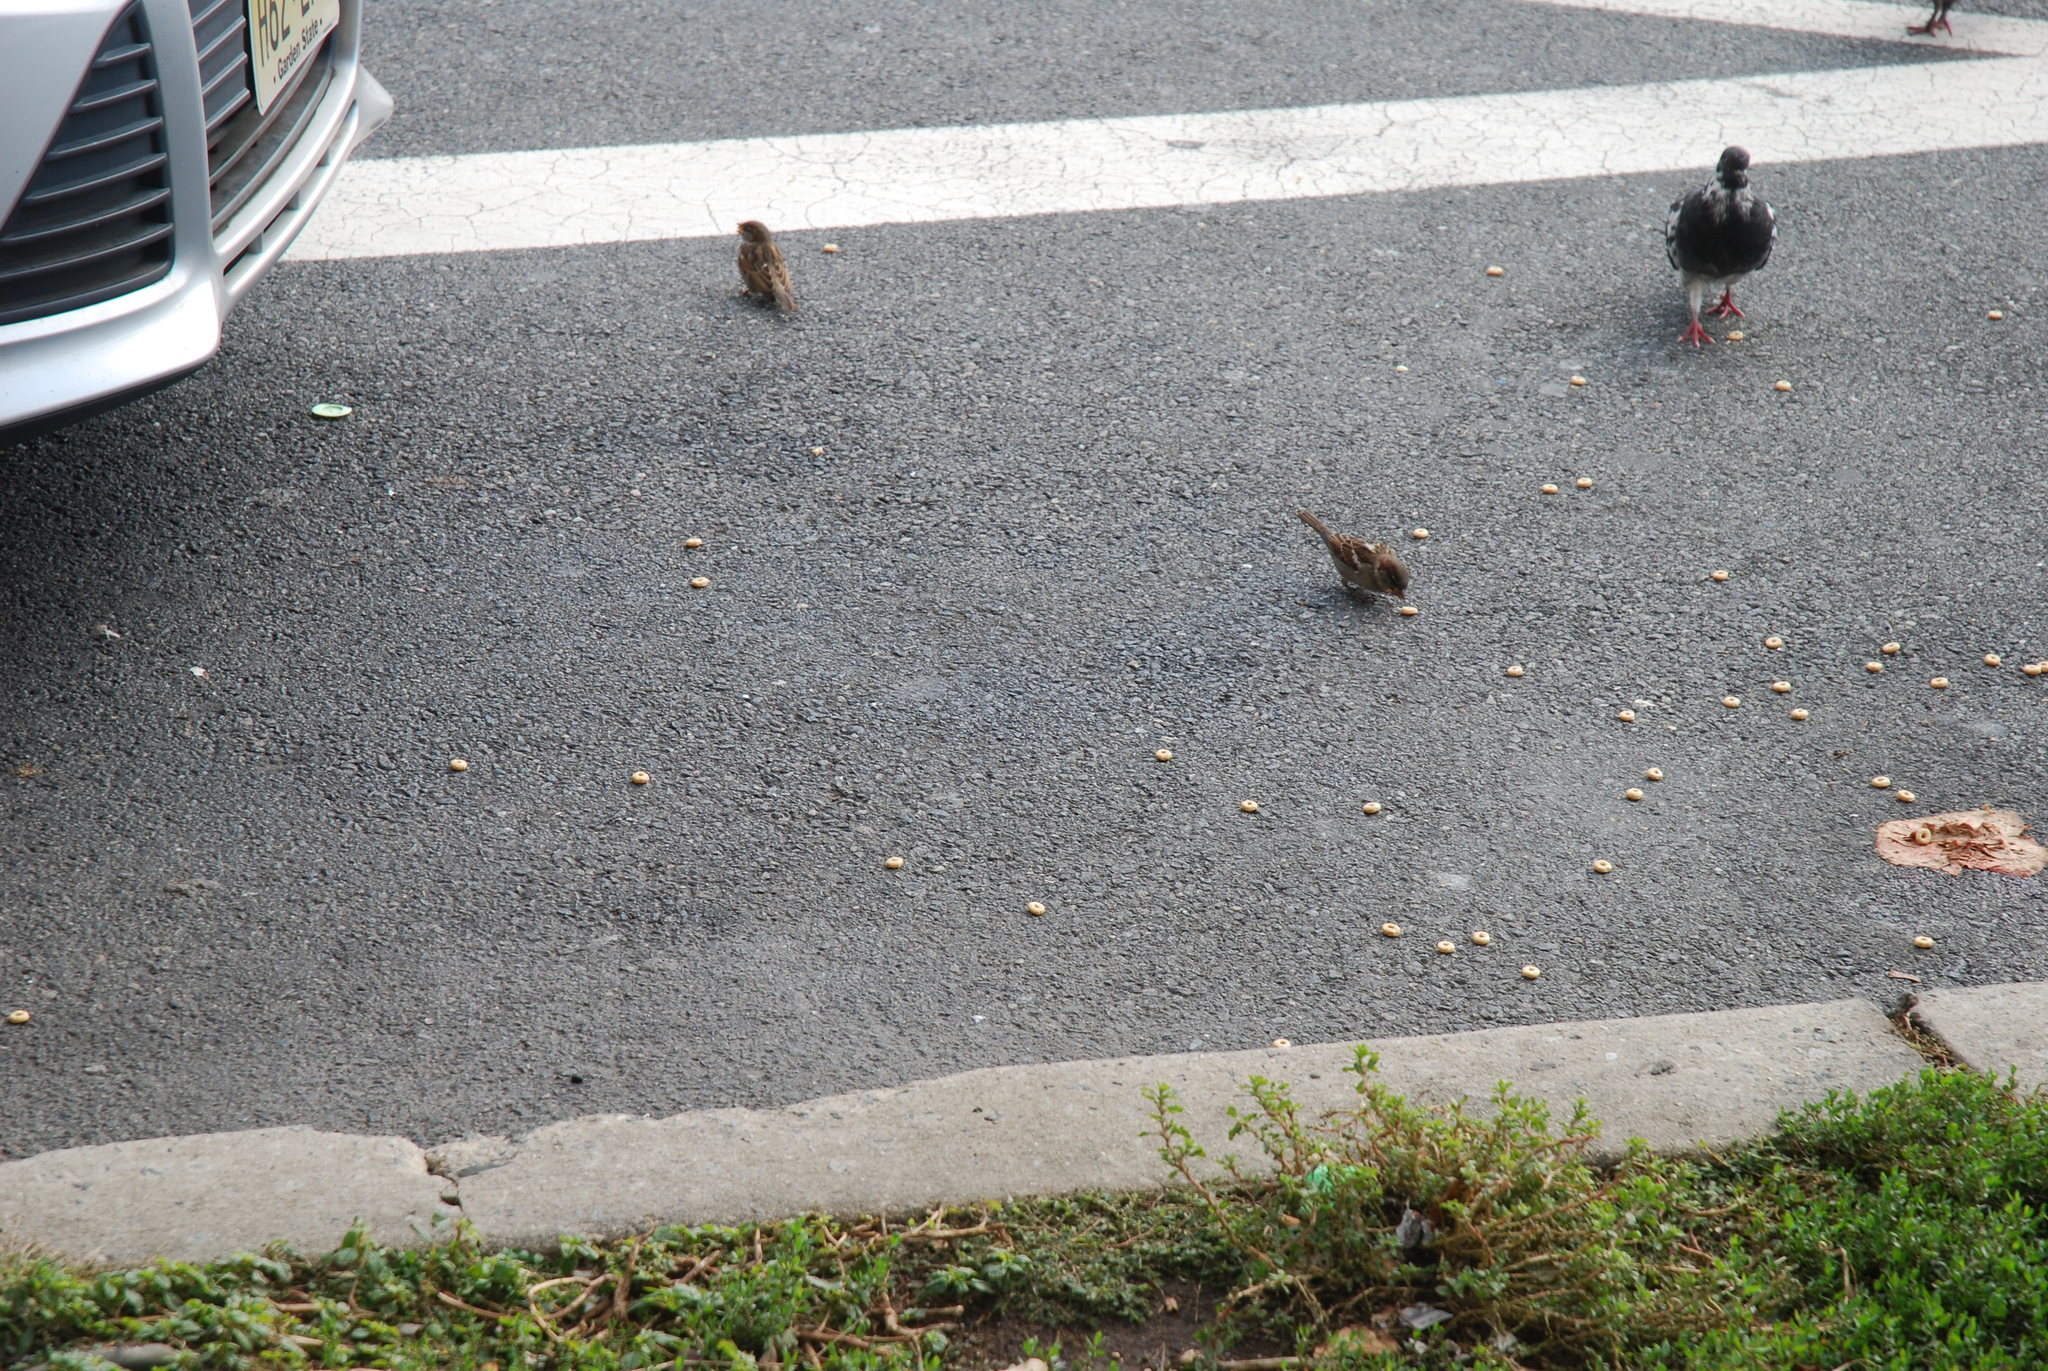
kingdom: Animalia
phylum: Chordata
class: Aves
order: Passeriformes
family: Passeridae
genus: Passer
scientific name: Passer domesticus
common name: House sparrow
